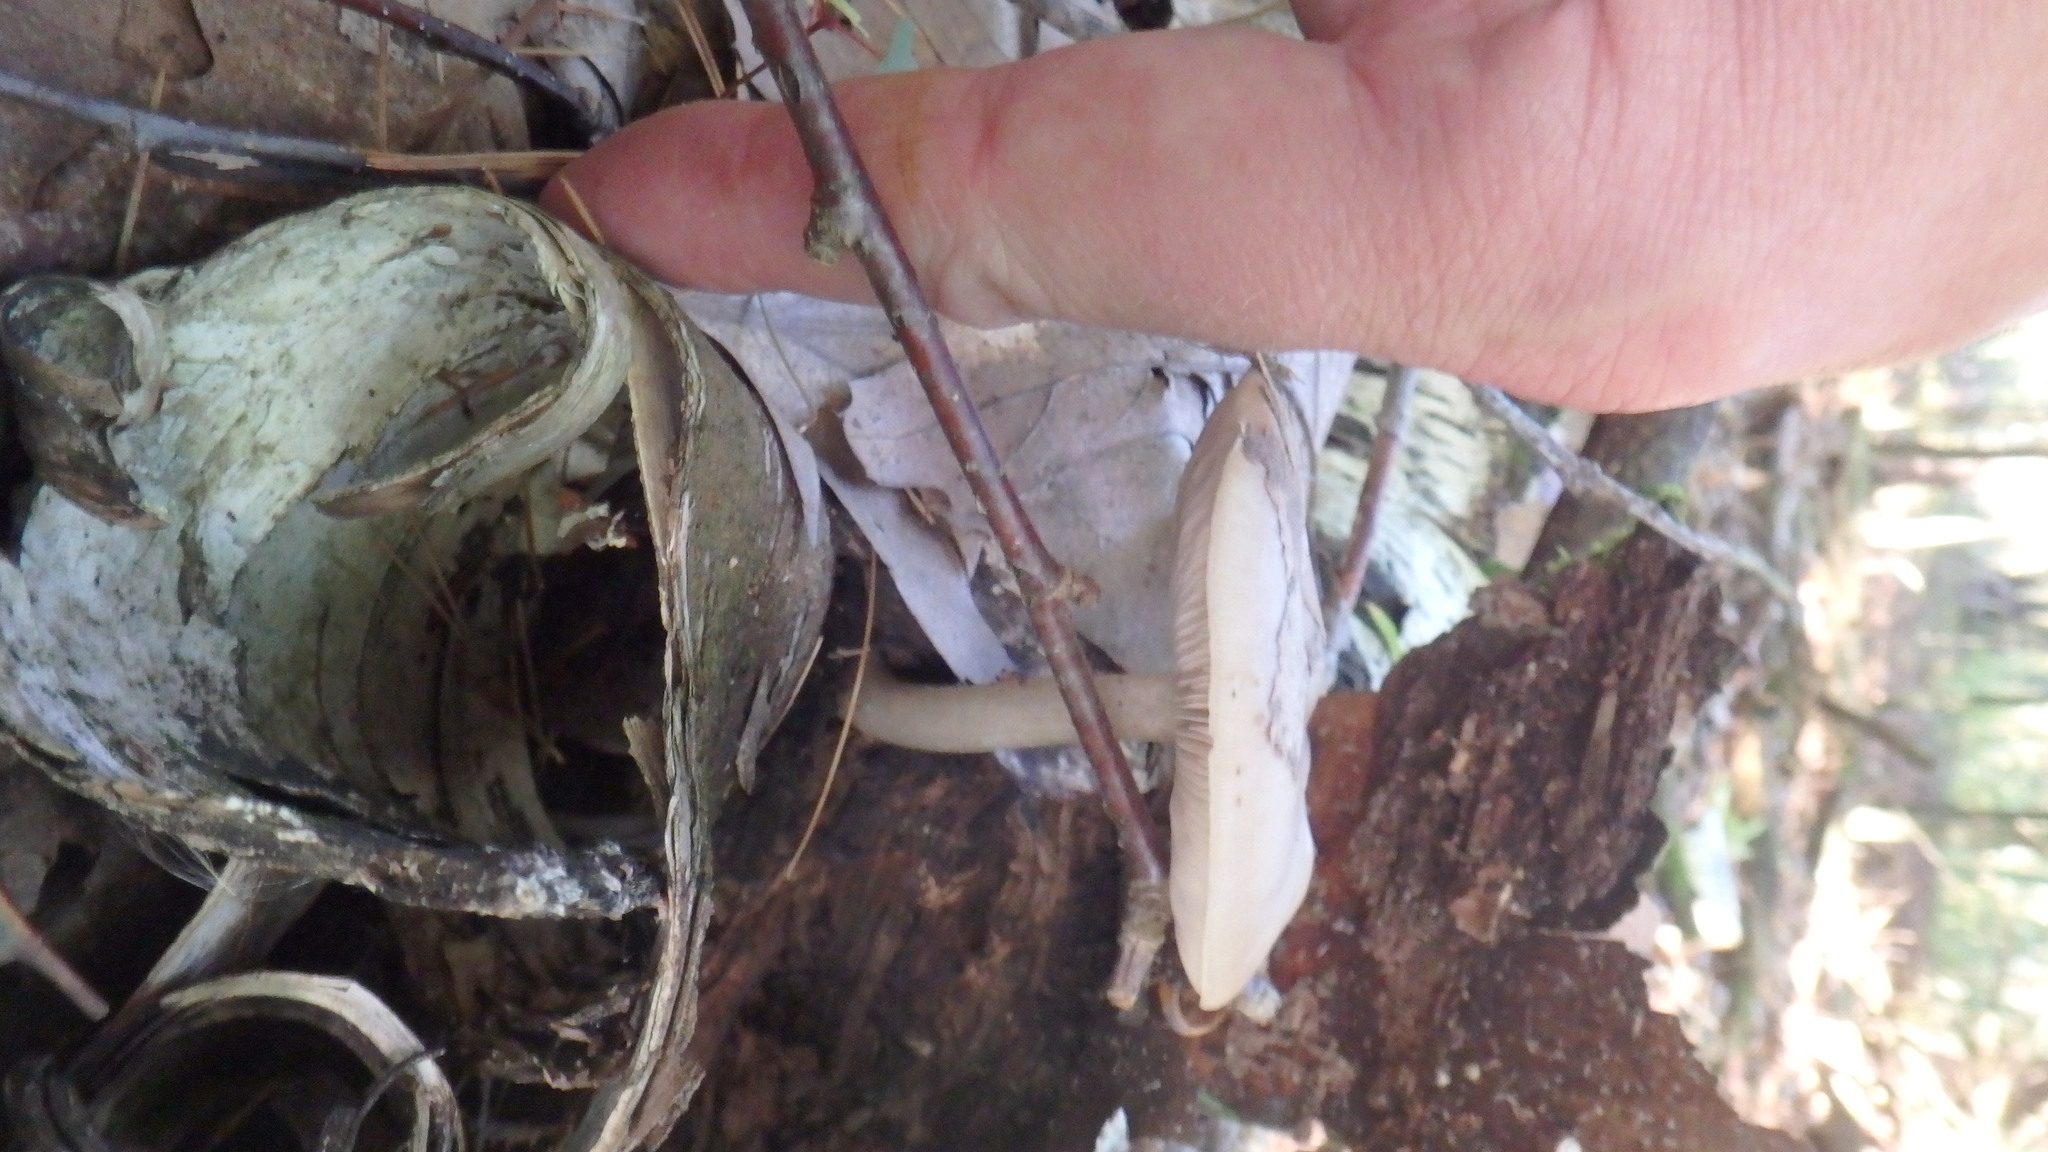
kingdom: Fungi
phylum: Basidiomycota
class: Agaricomycetes
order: Agaricales
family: Pluteaceae
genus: Pluteus
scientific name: Pluteus cervinus
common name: Deer shield
